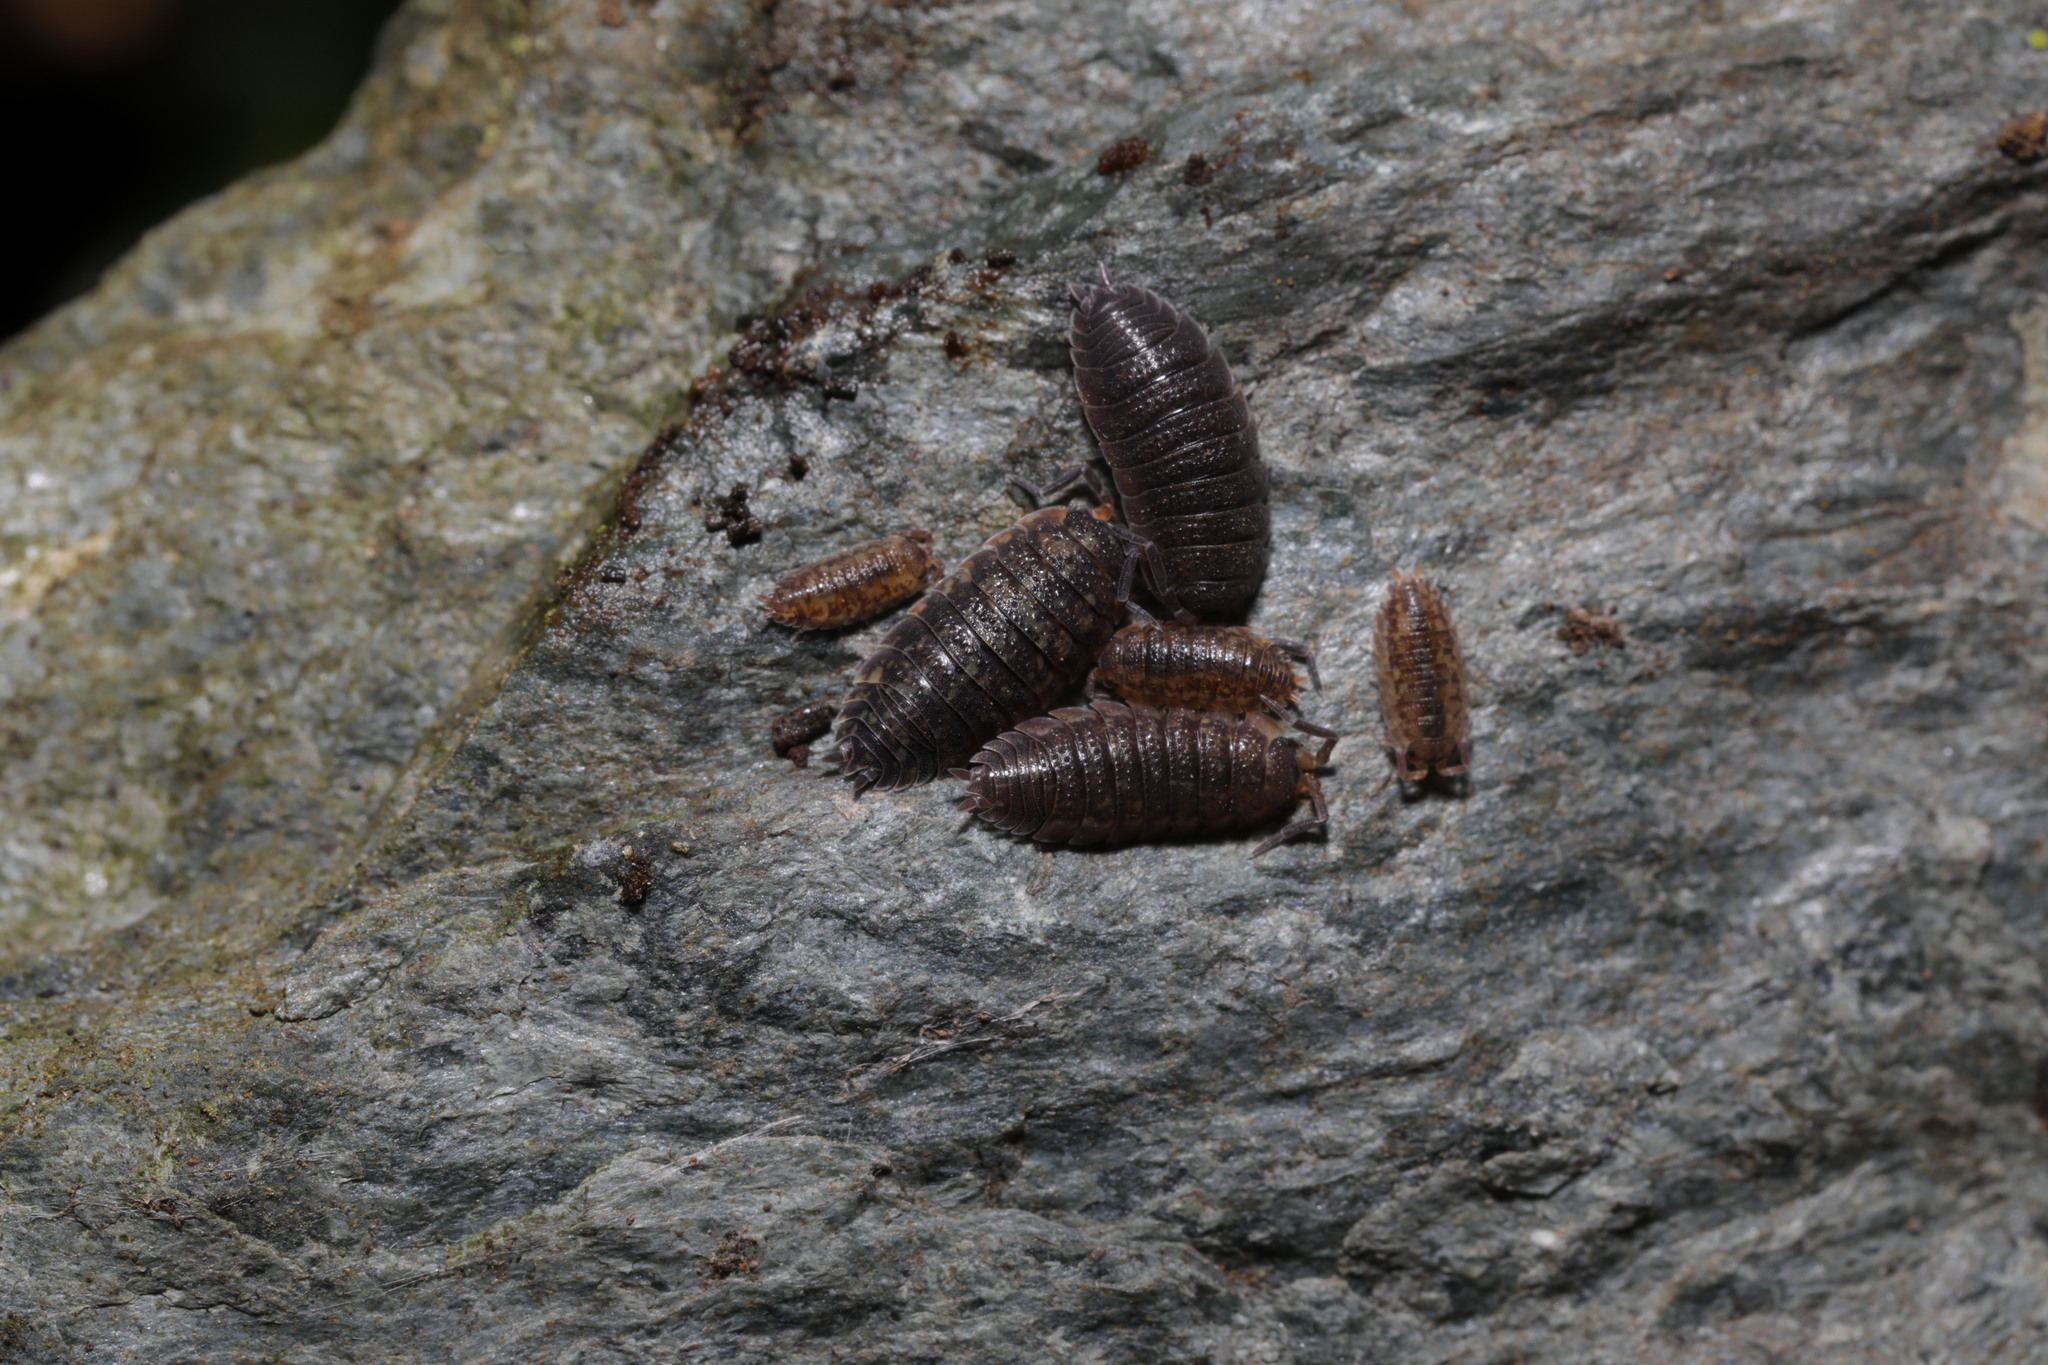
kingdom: Animalia
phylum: Arthropoda
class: Malacostraca
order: Isopoda
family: Porcellionidae
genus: Porcellio
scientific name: Porcellio scaber
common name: Common rough woodlouse
